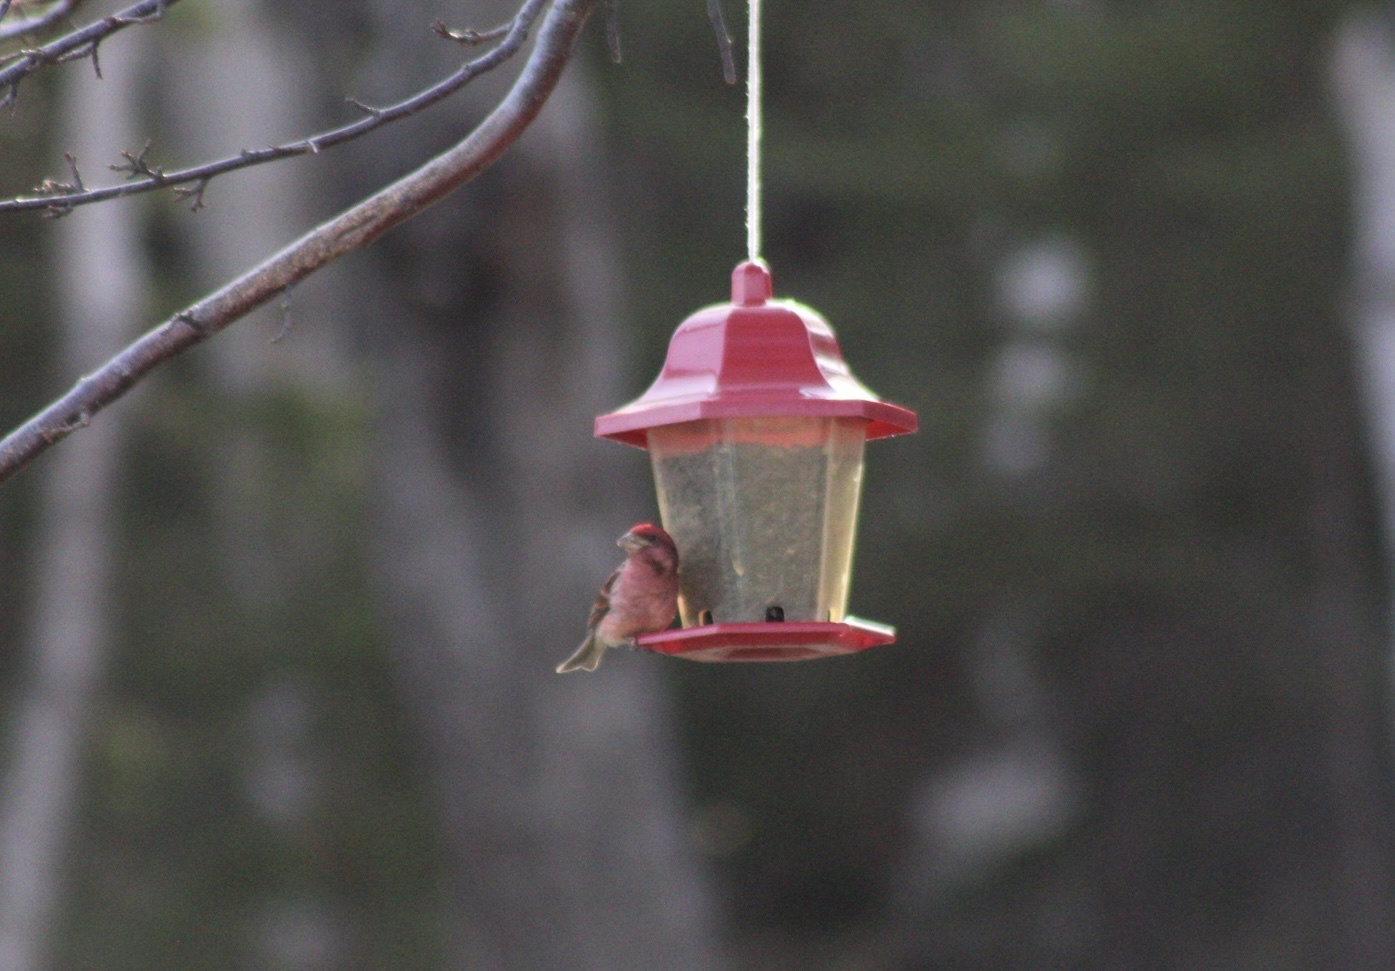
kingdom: Animalia
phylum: Chordata
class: Aves
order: Passeriformes
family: Fringillidae
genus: Haemorhous
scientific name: Haemorhous purpureus
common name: Purple finch
